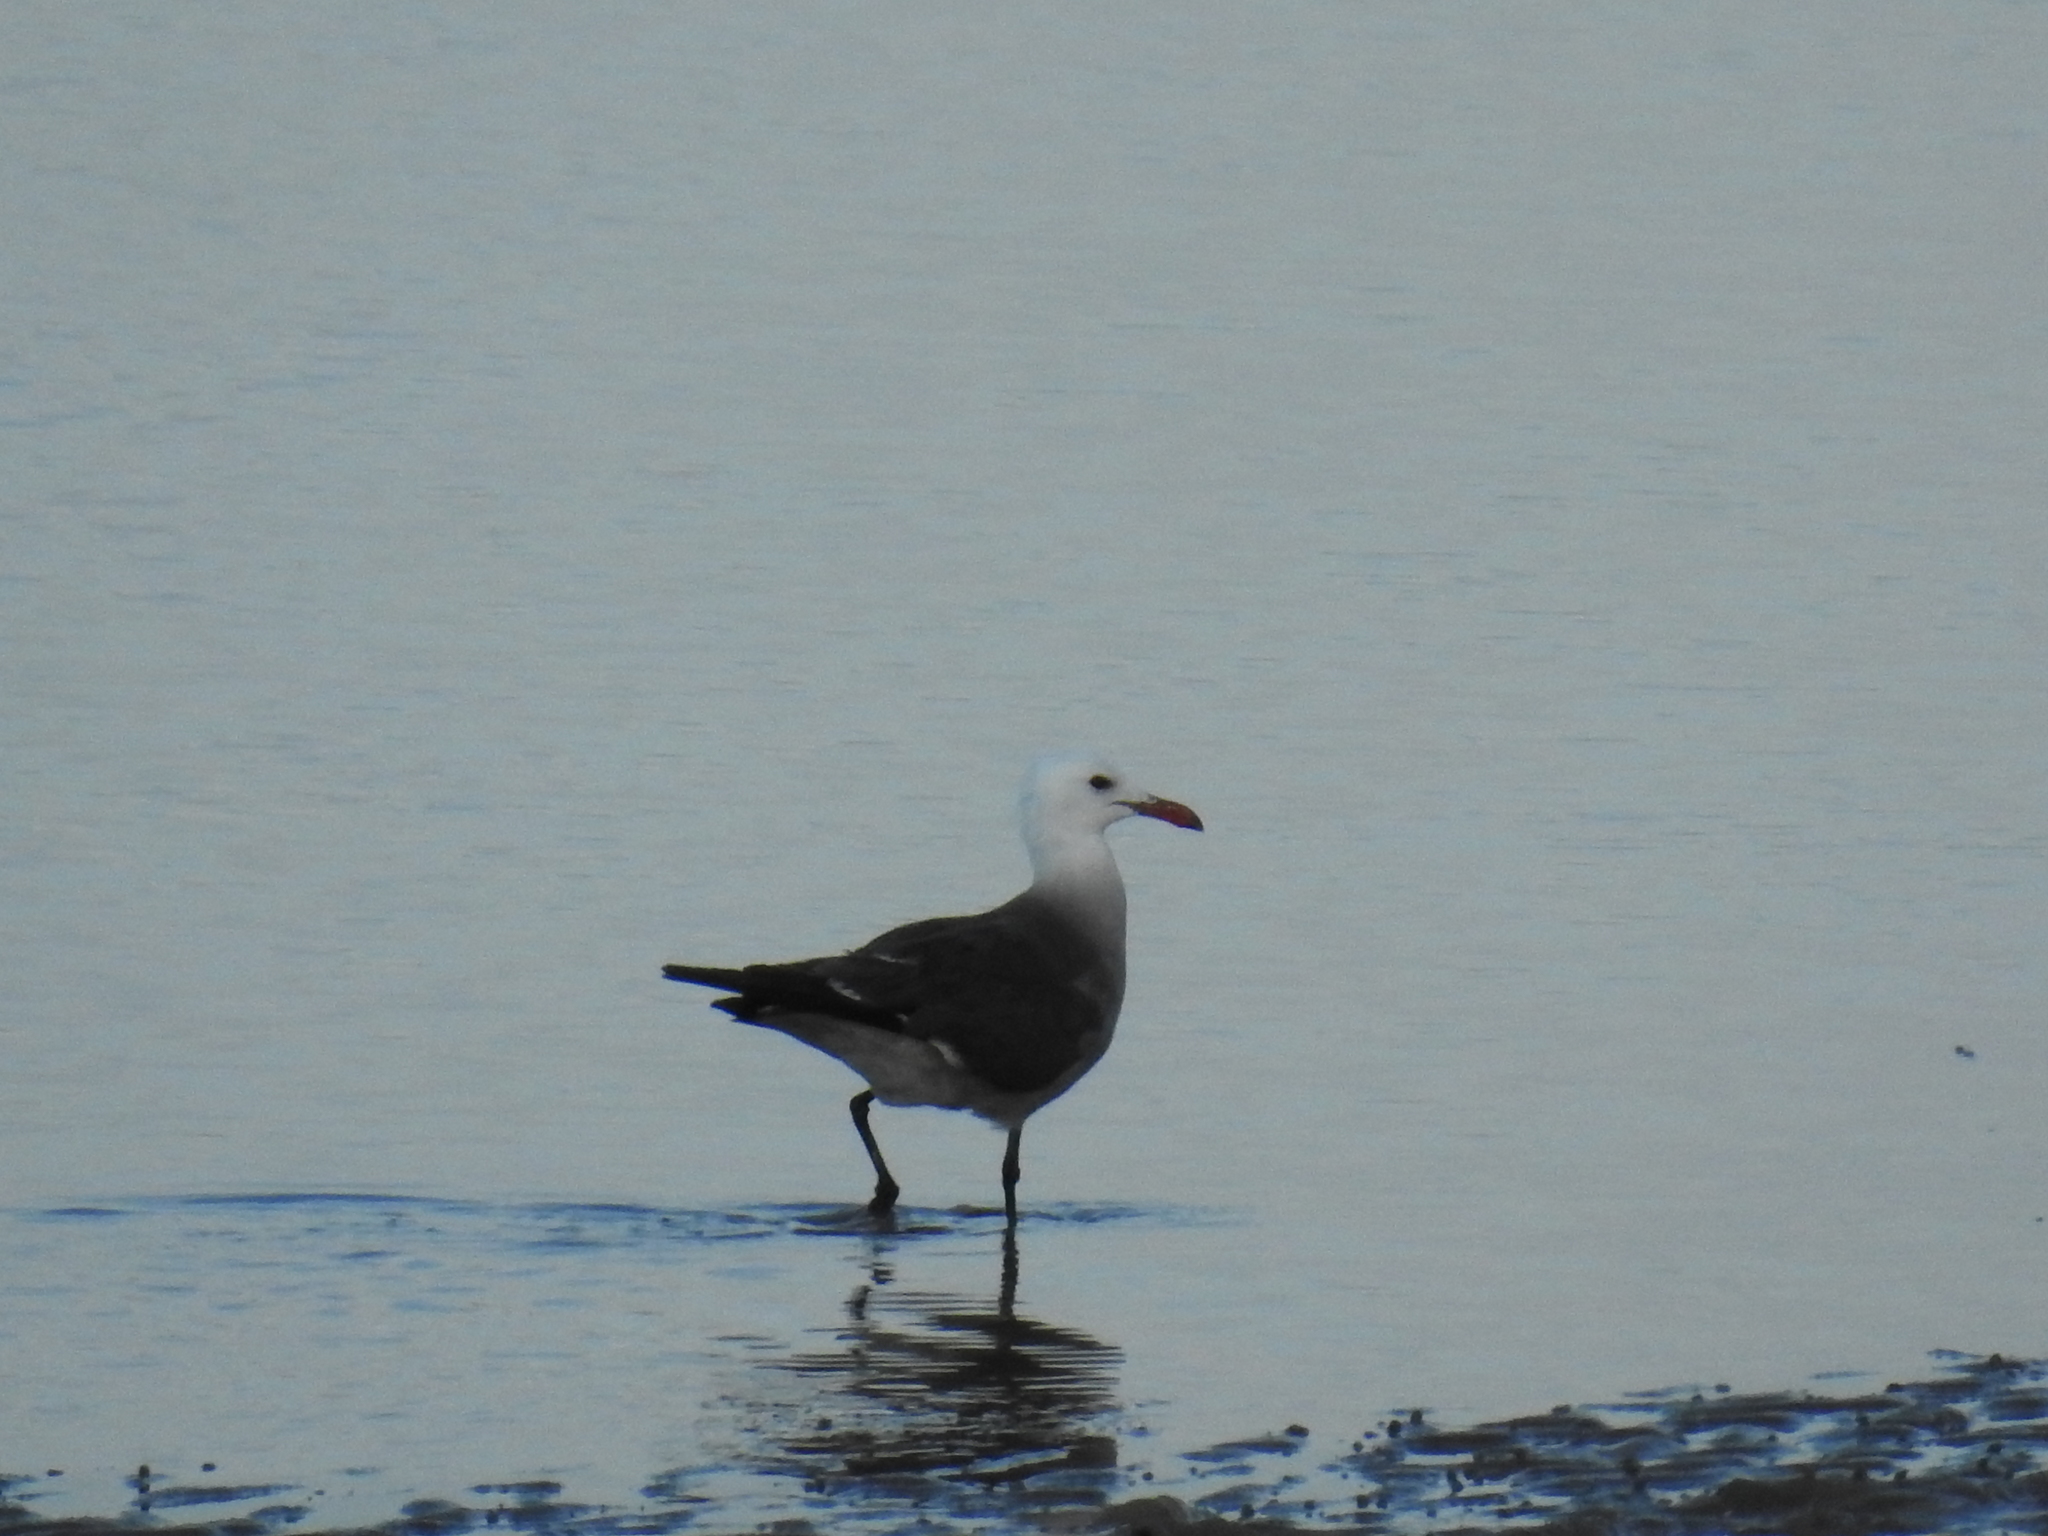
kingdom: Animalia
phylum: Chordata
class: Aves
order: Charadriiformes
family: Laridae
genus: Larus
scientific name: Larus heermanni
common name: Heermann's gull
